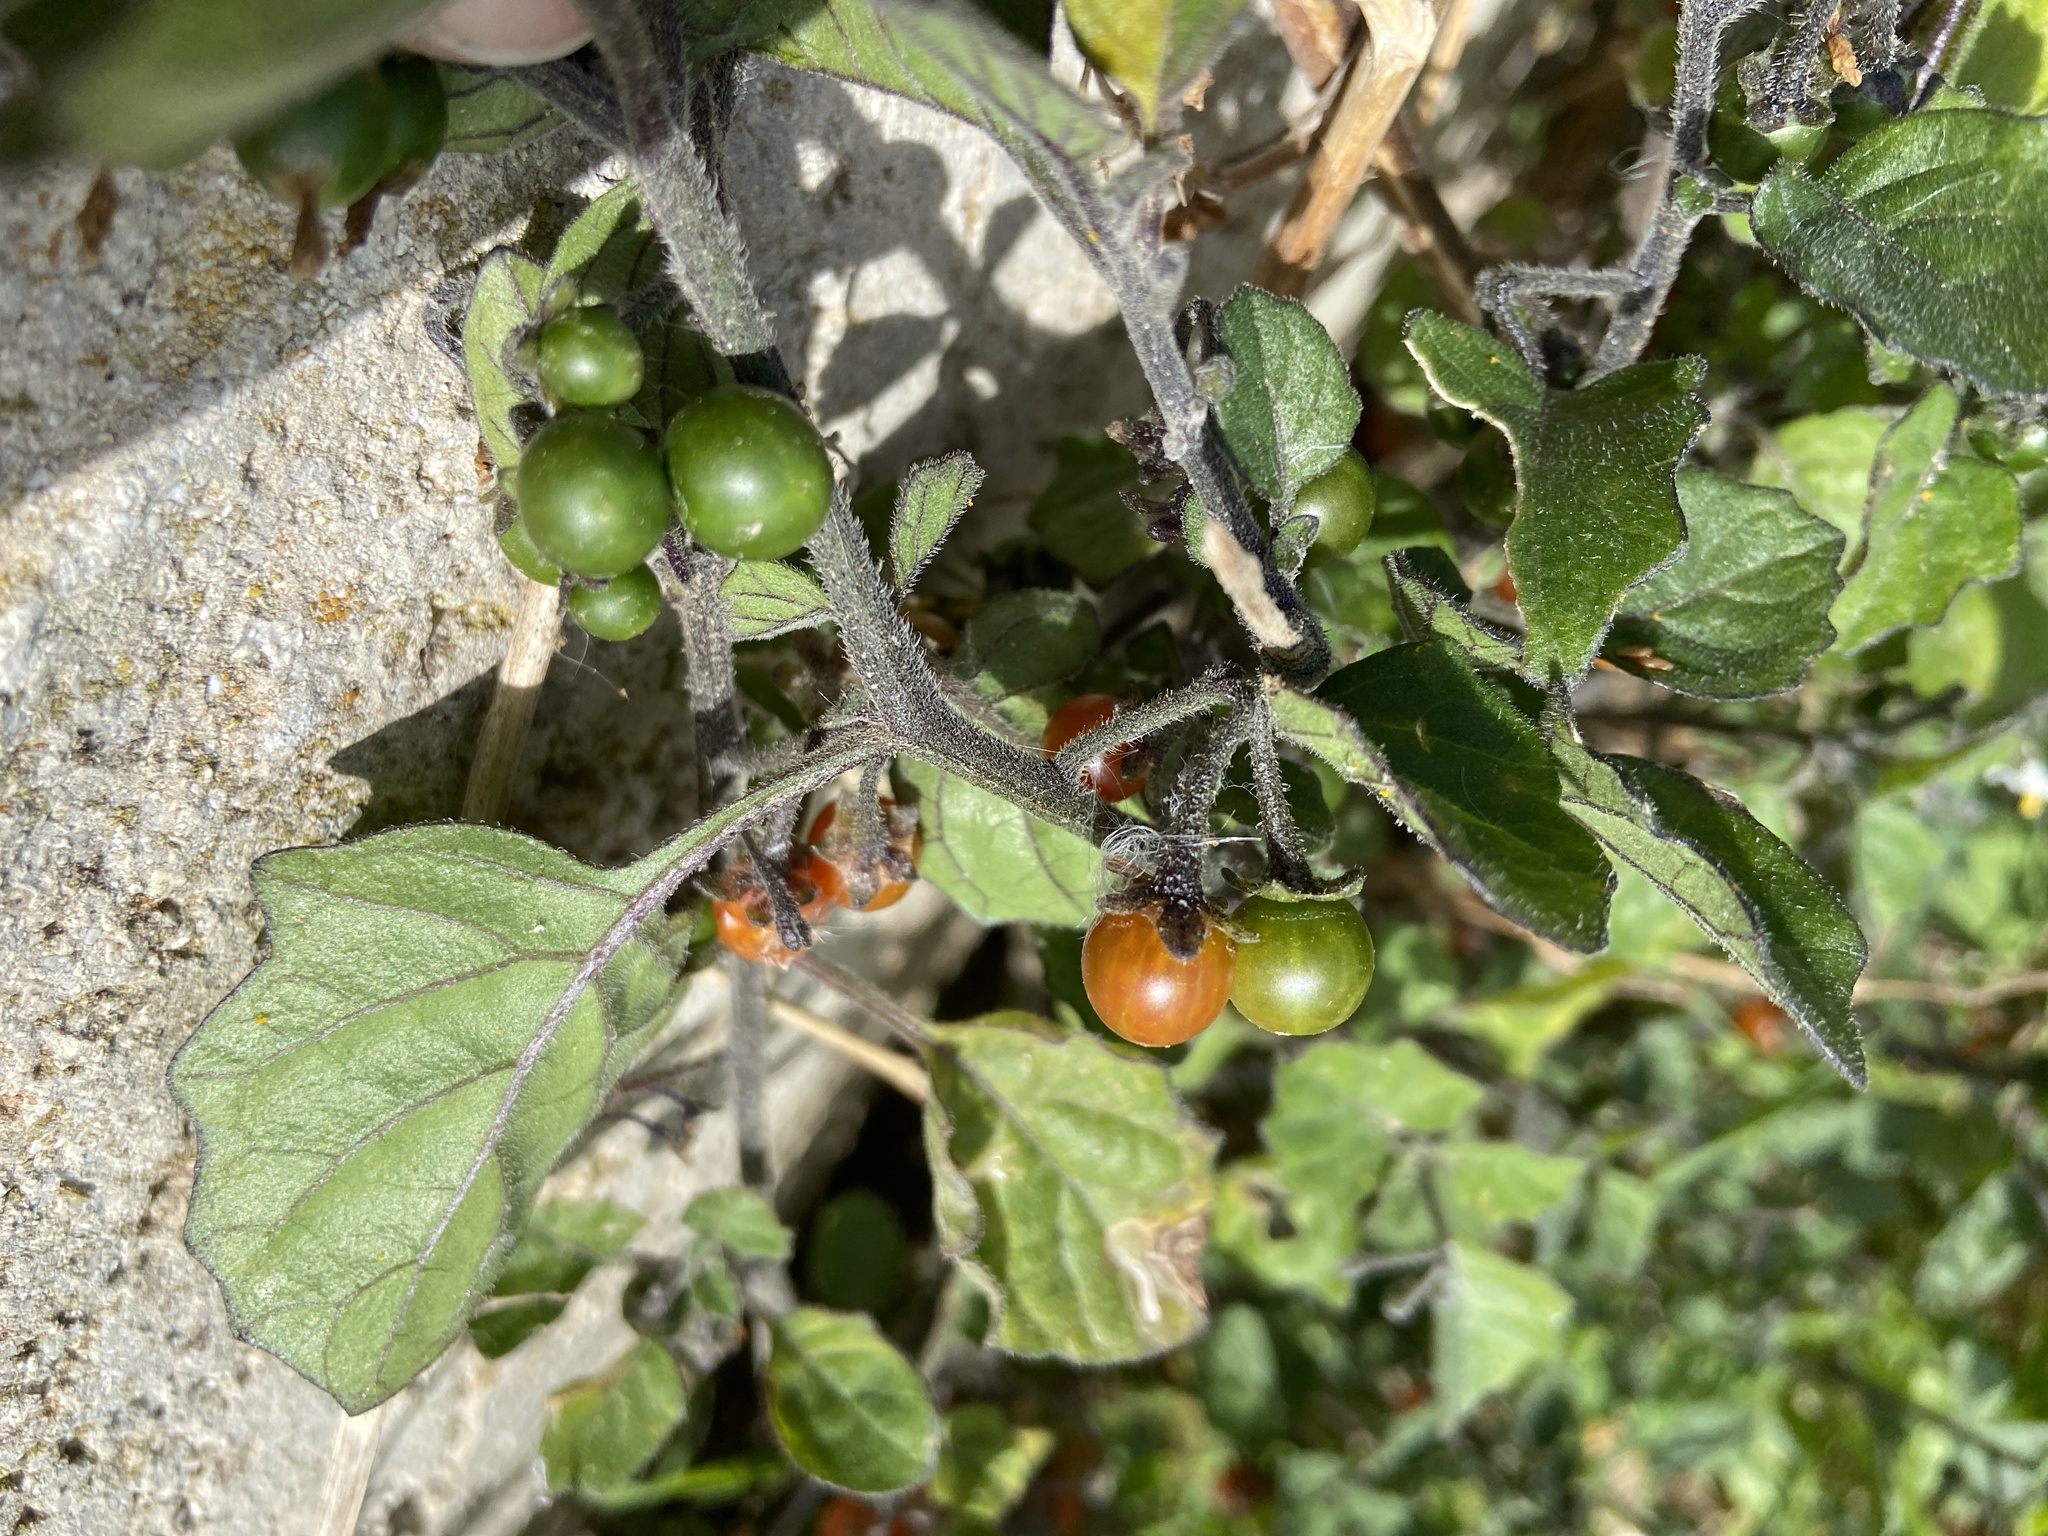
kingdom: Plantae
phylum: Tracheophyta
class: Magnoliopsida
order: Solanales
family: Solanaceae
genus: Solanum
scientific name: Solanum villosum
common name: Red nightshade
